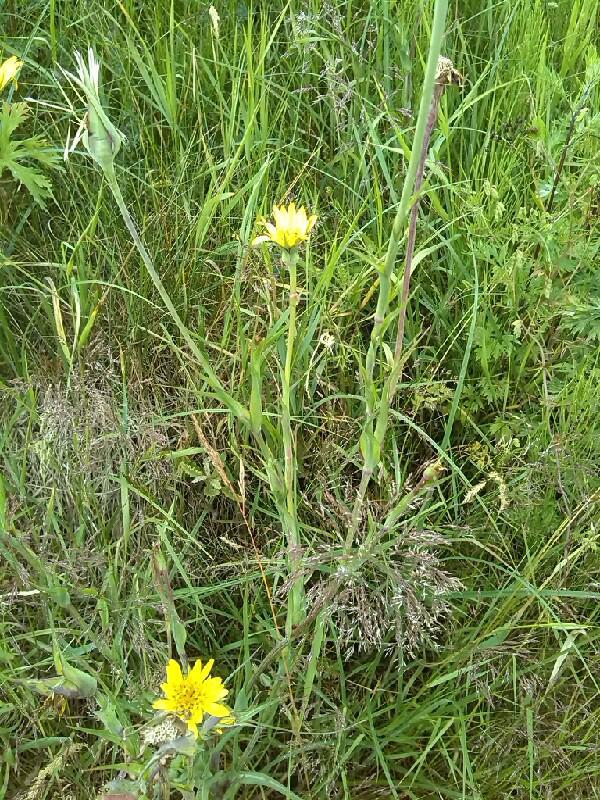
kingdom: Plantae
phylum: Tracheophyta
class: Magnoliopsida
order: Asterales
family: Asteraceae
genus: Tragopogon
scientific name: Tragopogon pratensis
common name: Goat's-beard
